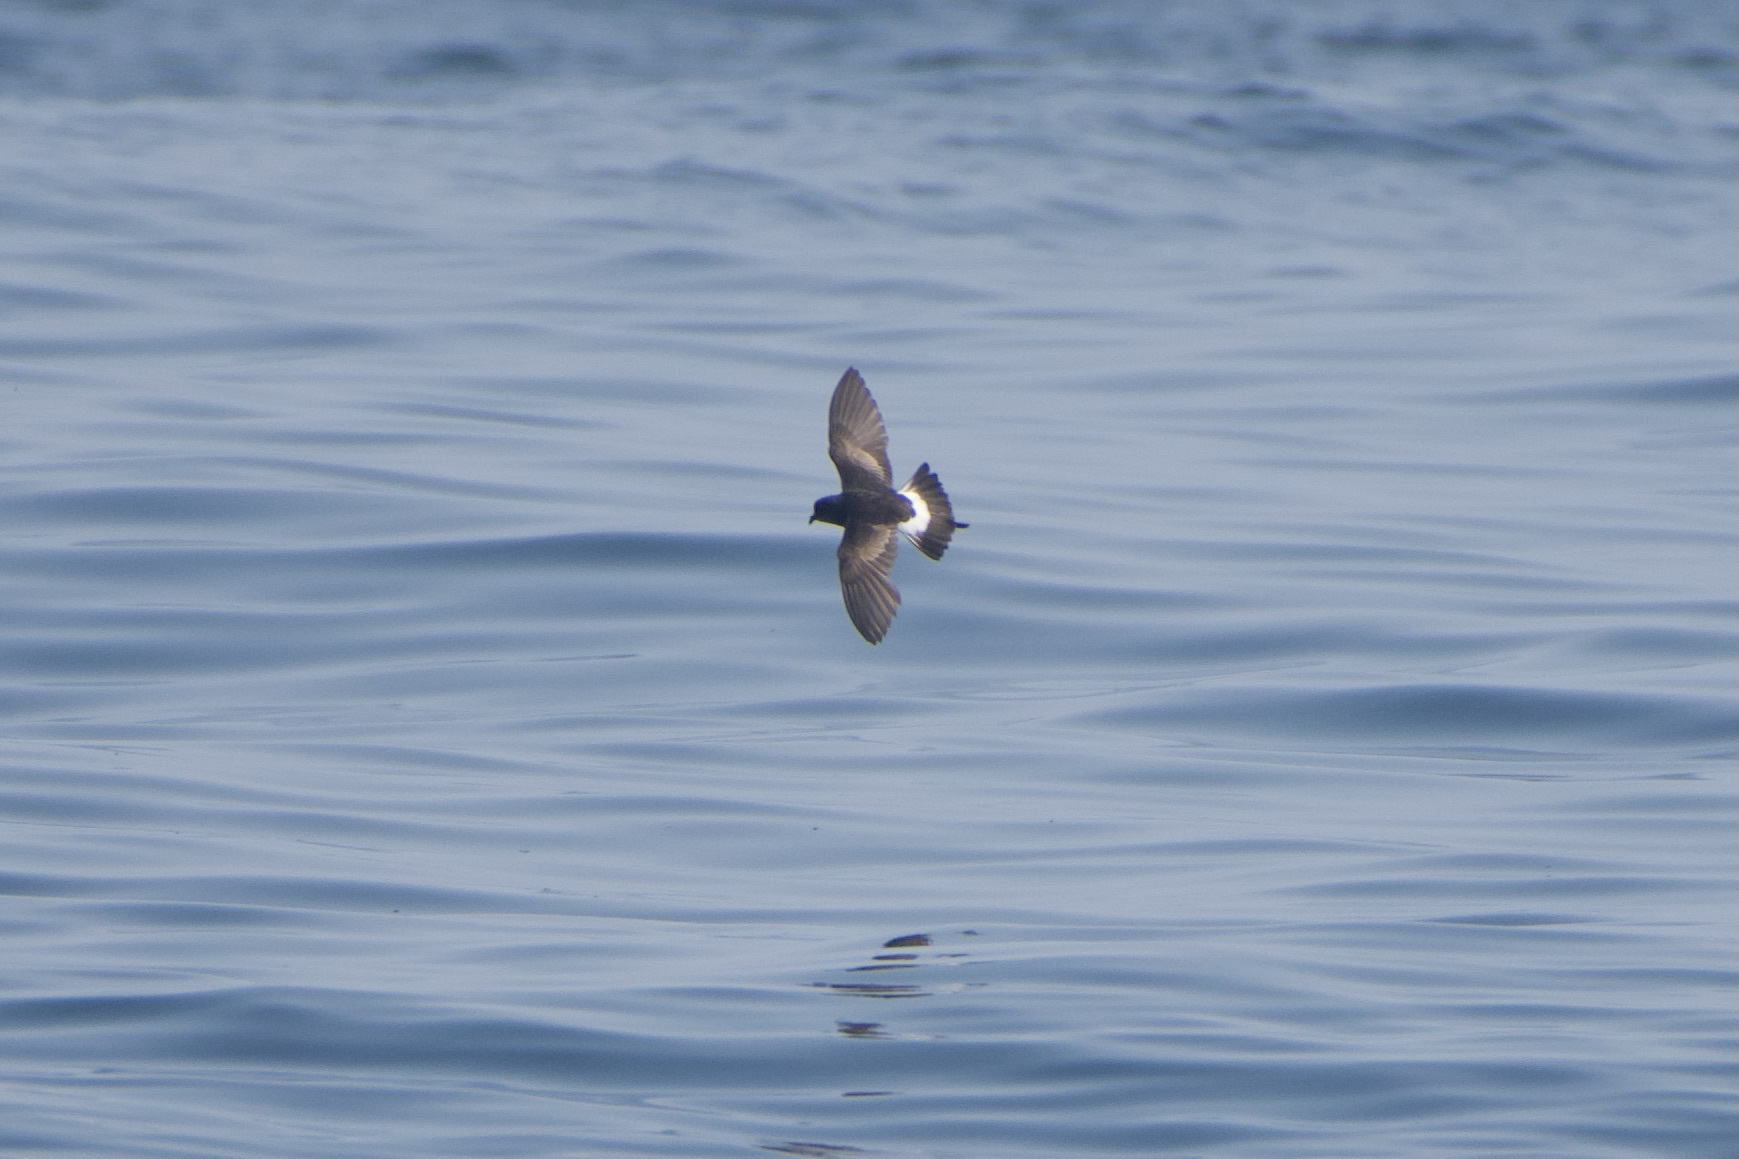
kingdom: Animalia
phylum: Chordata
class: Aves
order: Procellariiformes
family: Hydrobatidae
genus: Oceanites
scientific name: Oceanites oceanicus
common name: Wilson's storm petrel
